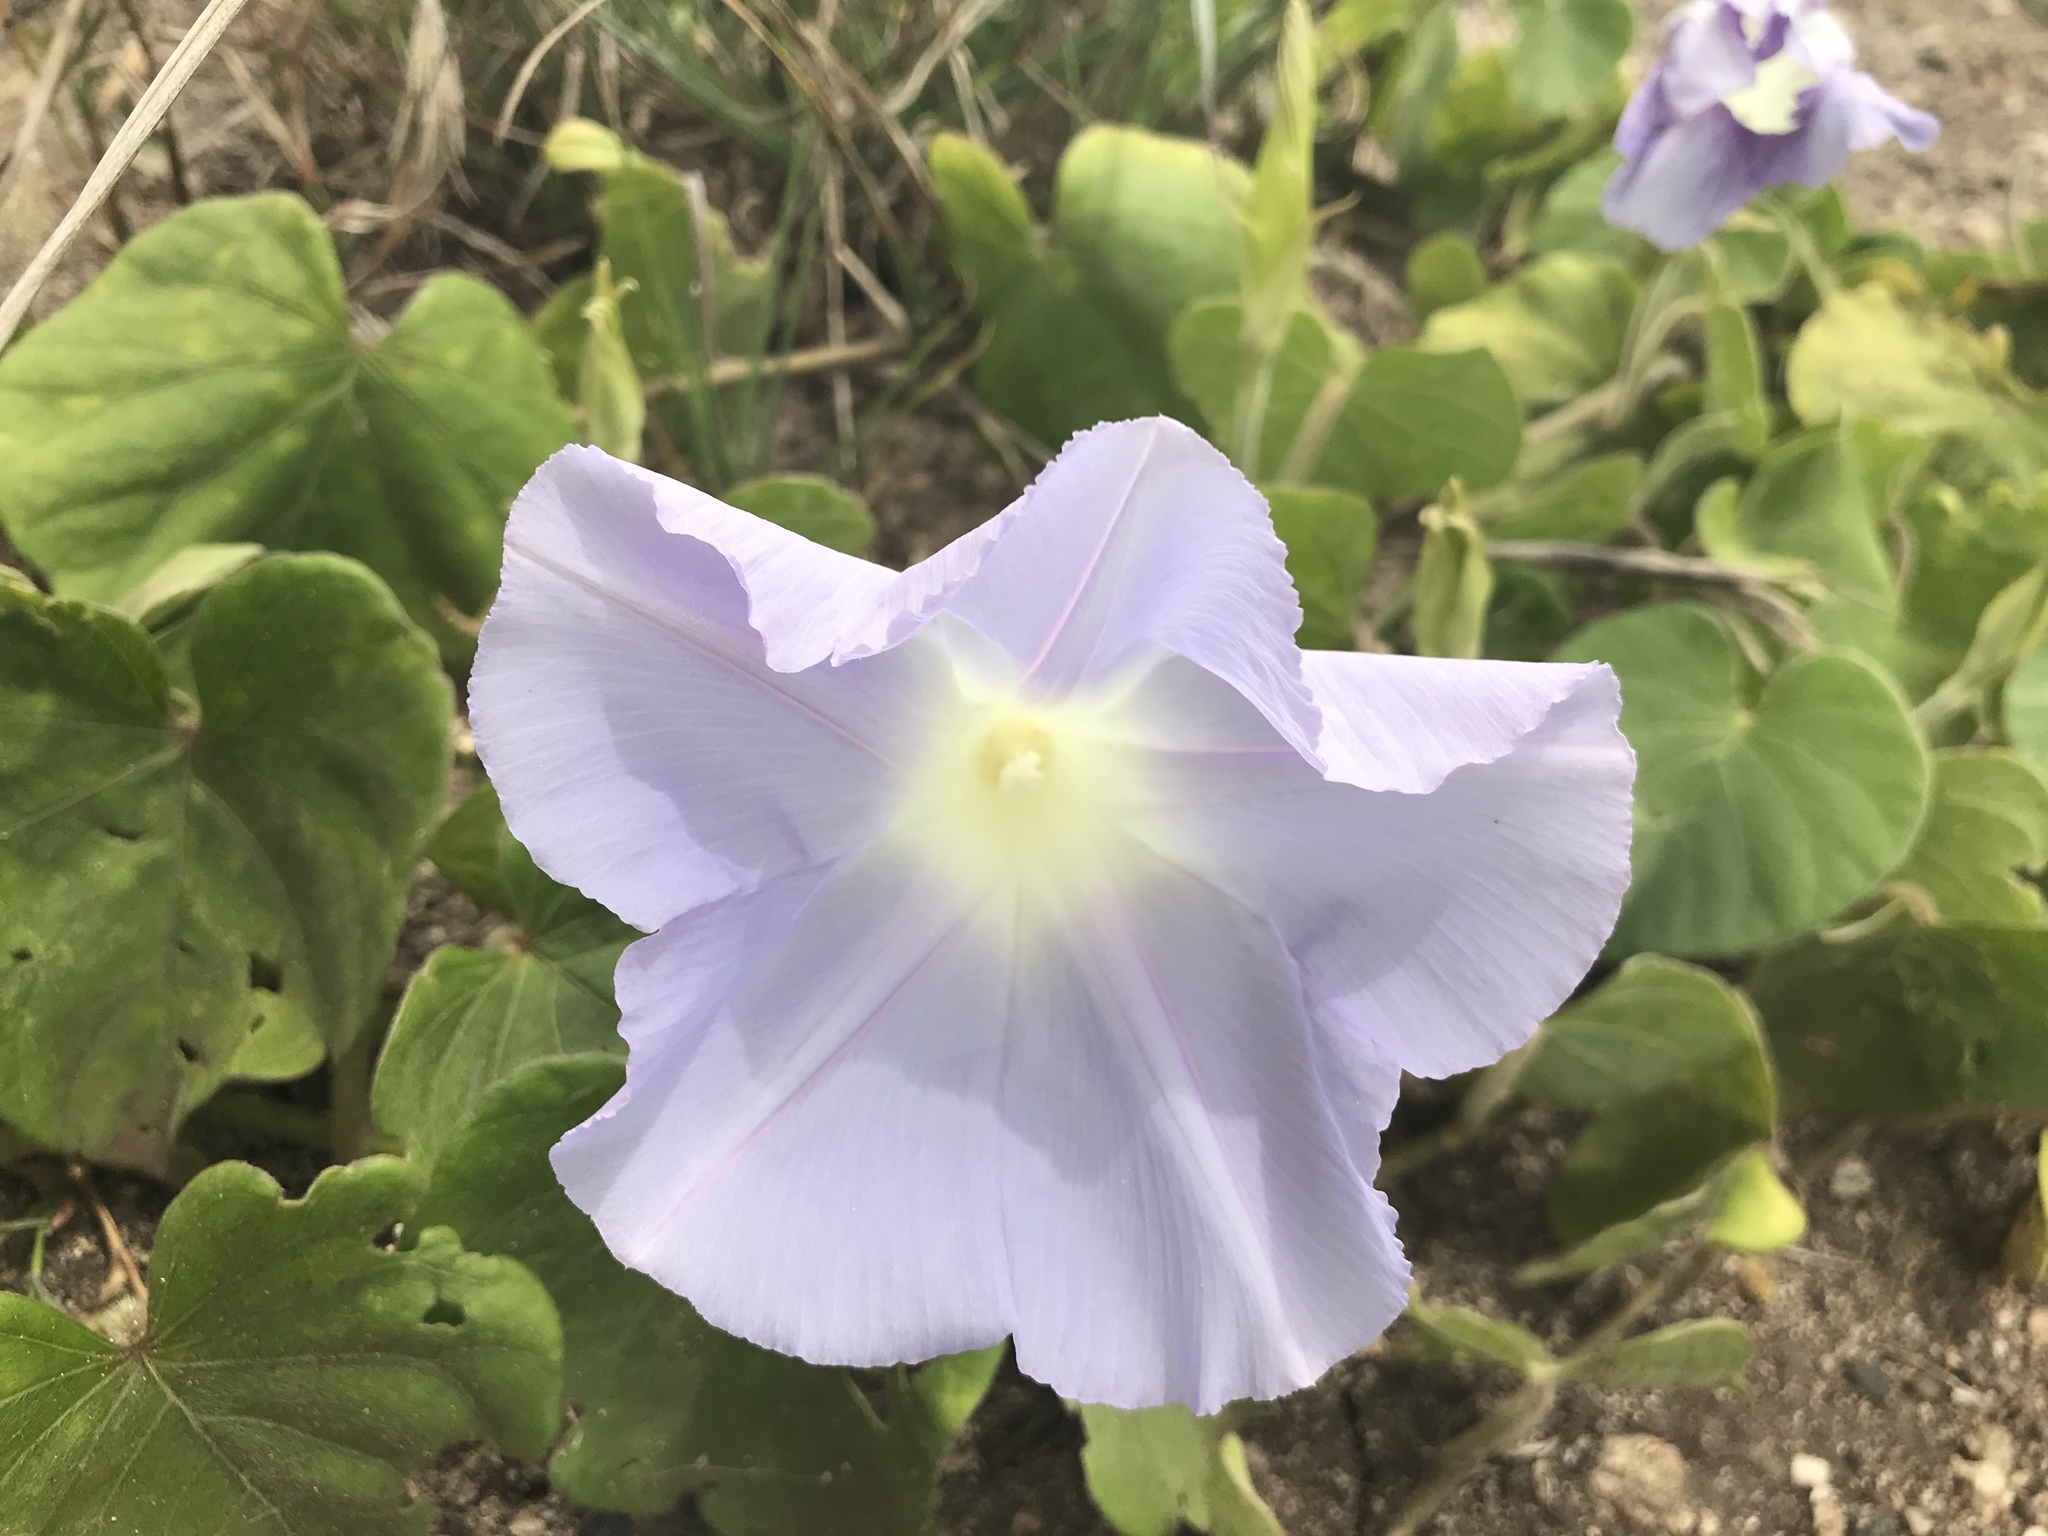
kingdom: Plantae
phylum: Tracheophyta
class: Magnoliopsida
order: Fabales
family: Fabaceae
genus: Sesbania
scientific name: Sesbania tomentosa
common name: `ohai
